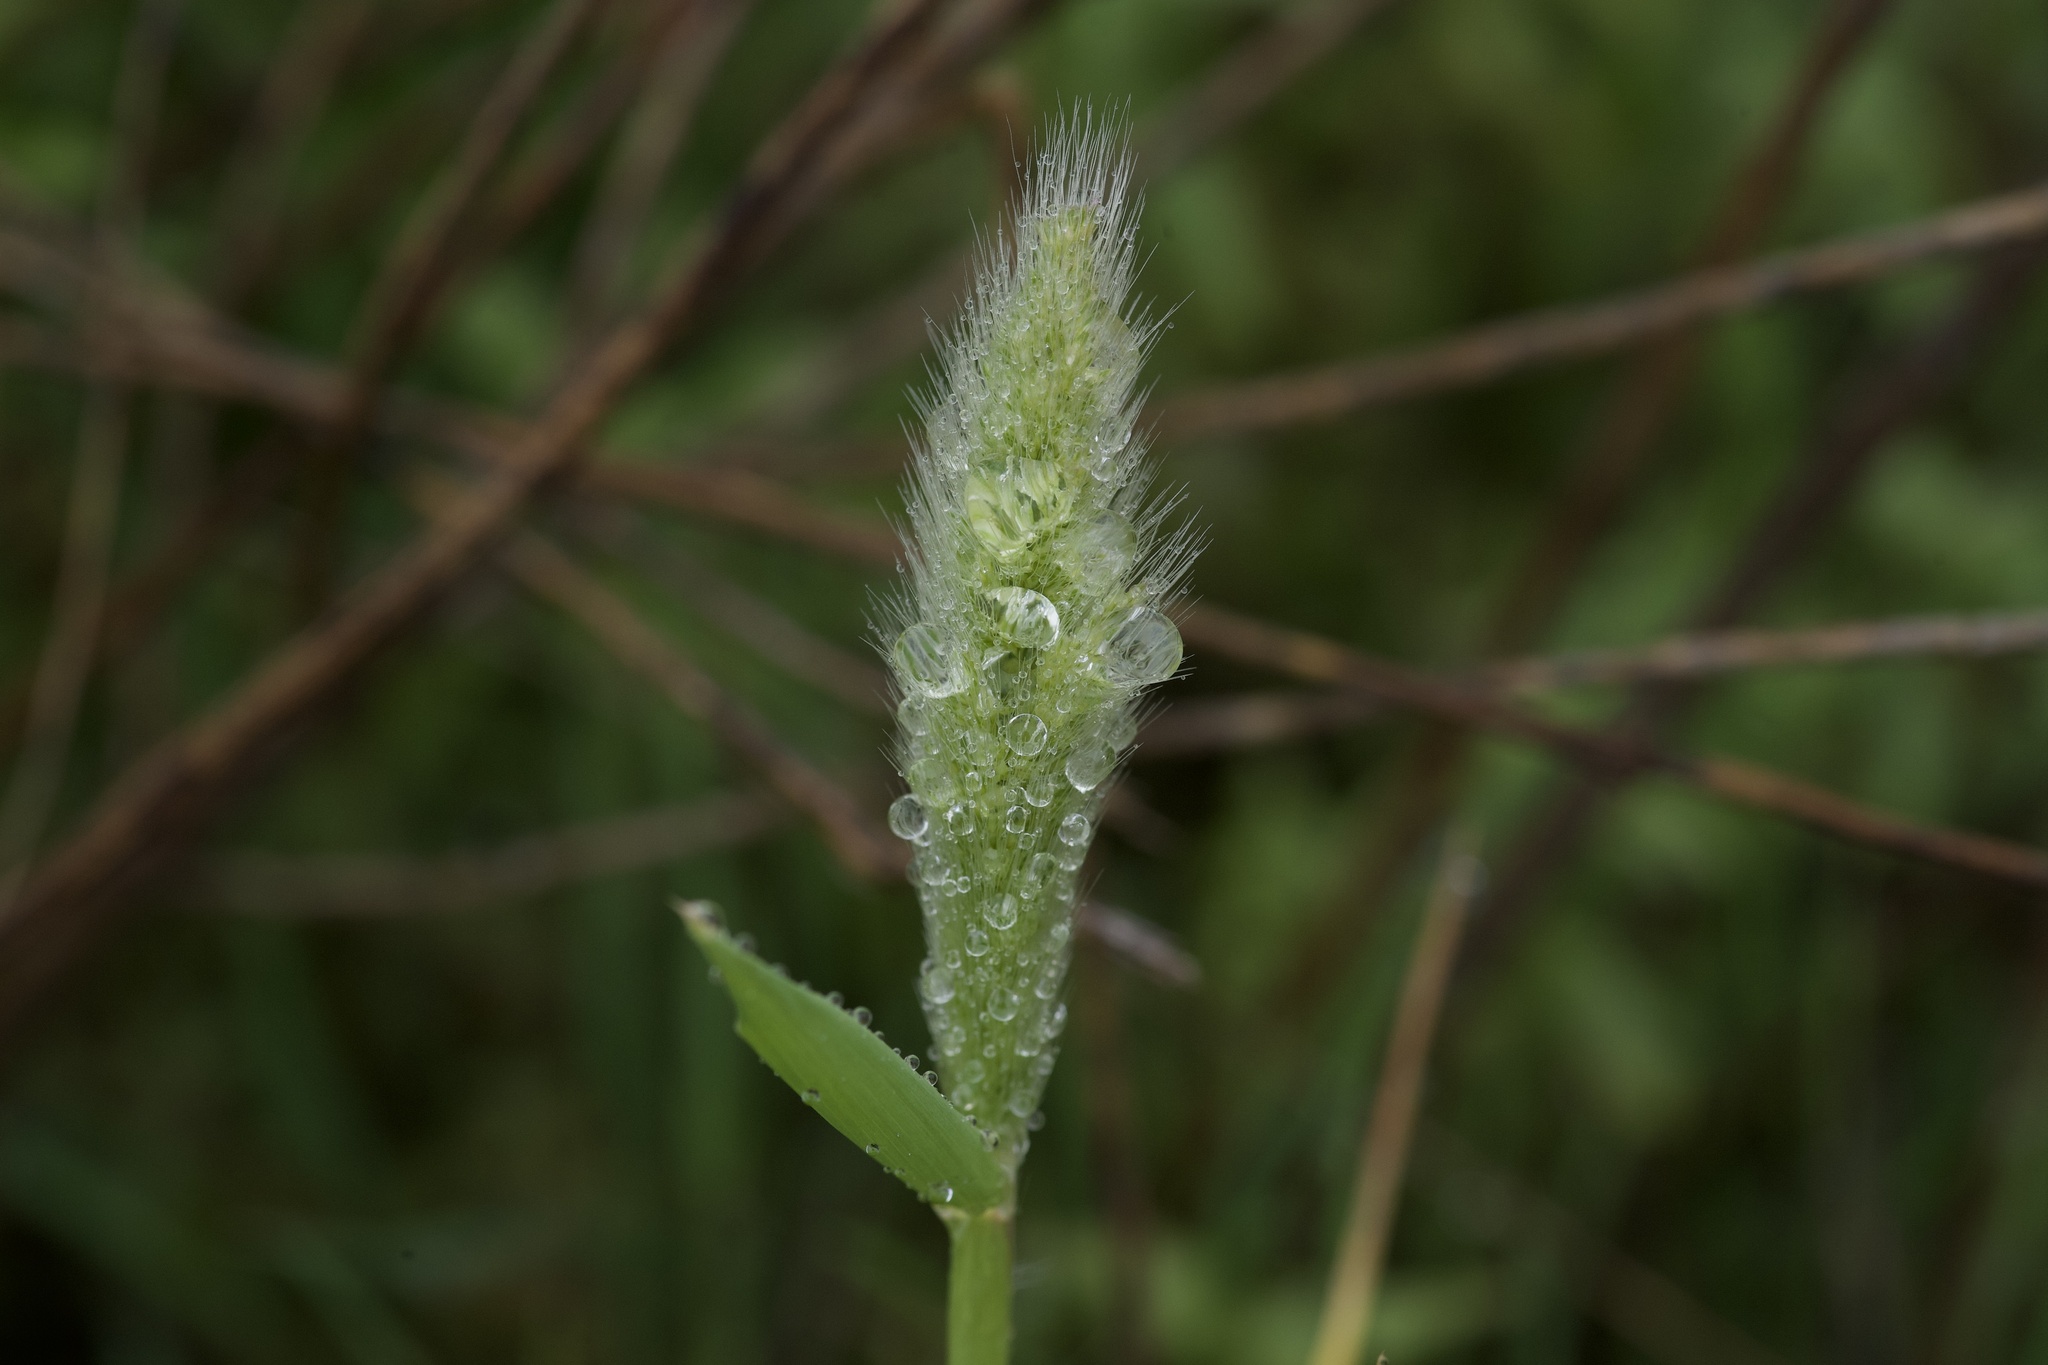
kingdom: Plantae
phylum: Tracheophyta
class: Liliopsida
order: Poales
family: Poaceae
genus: Polypogon
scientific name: Polypogon monspeliensis
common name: Annual rabbitsfoot grass
